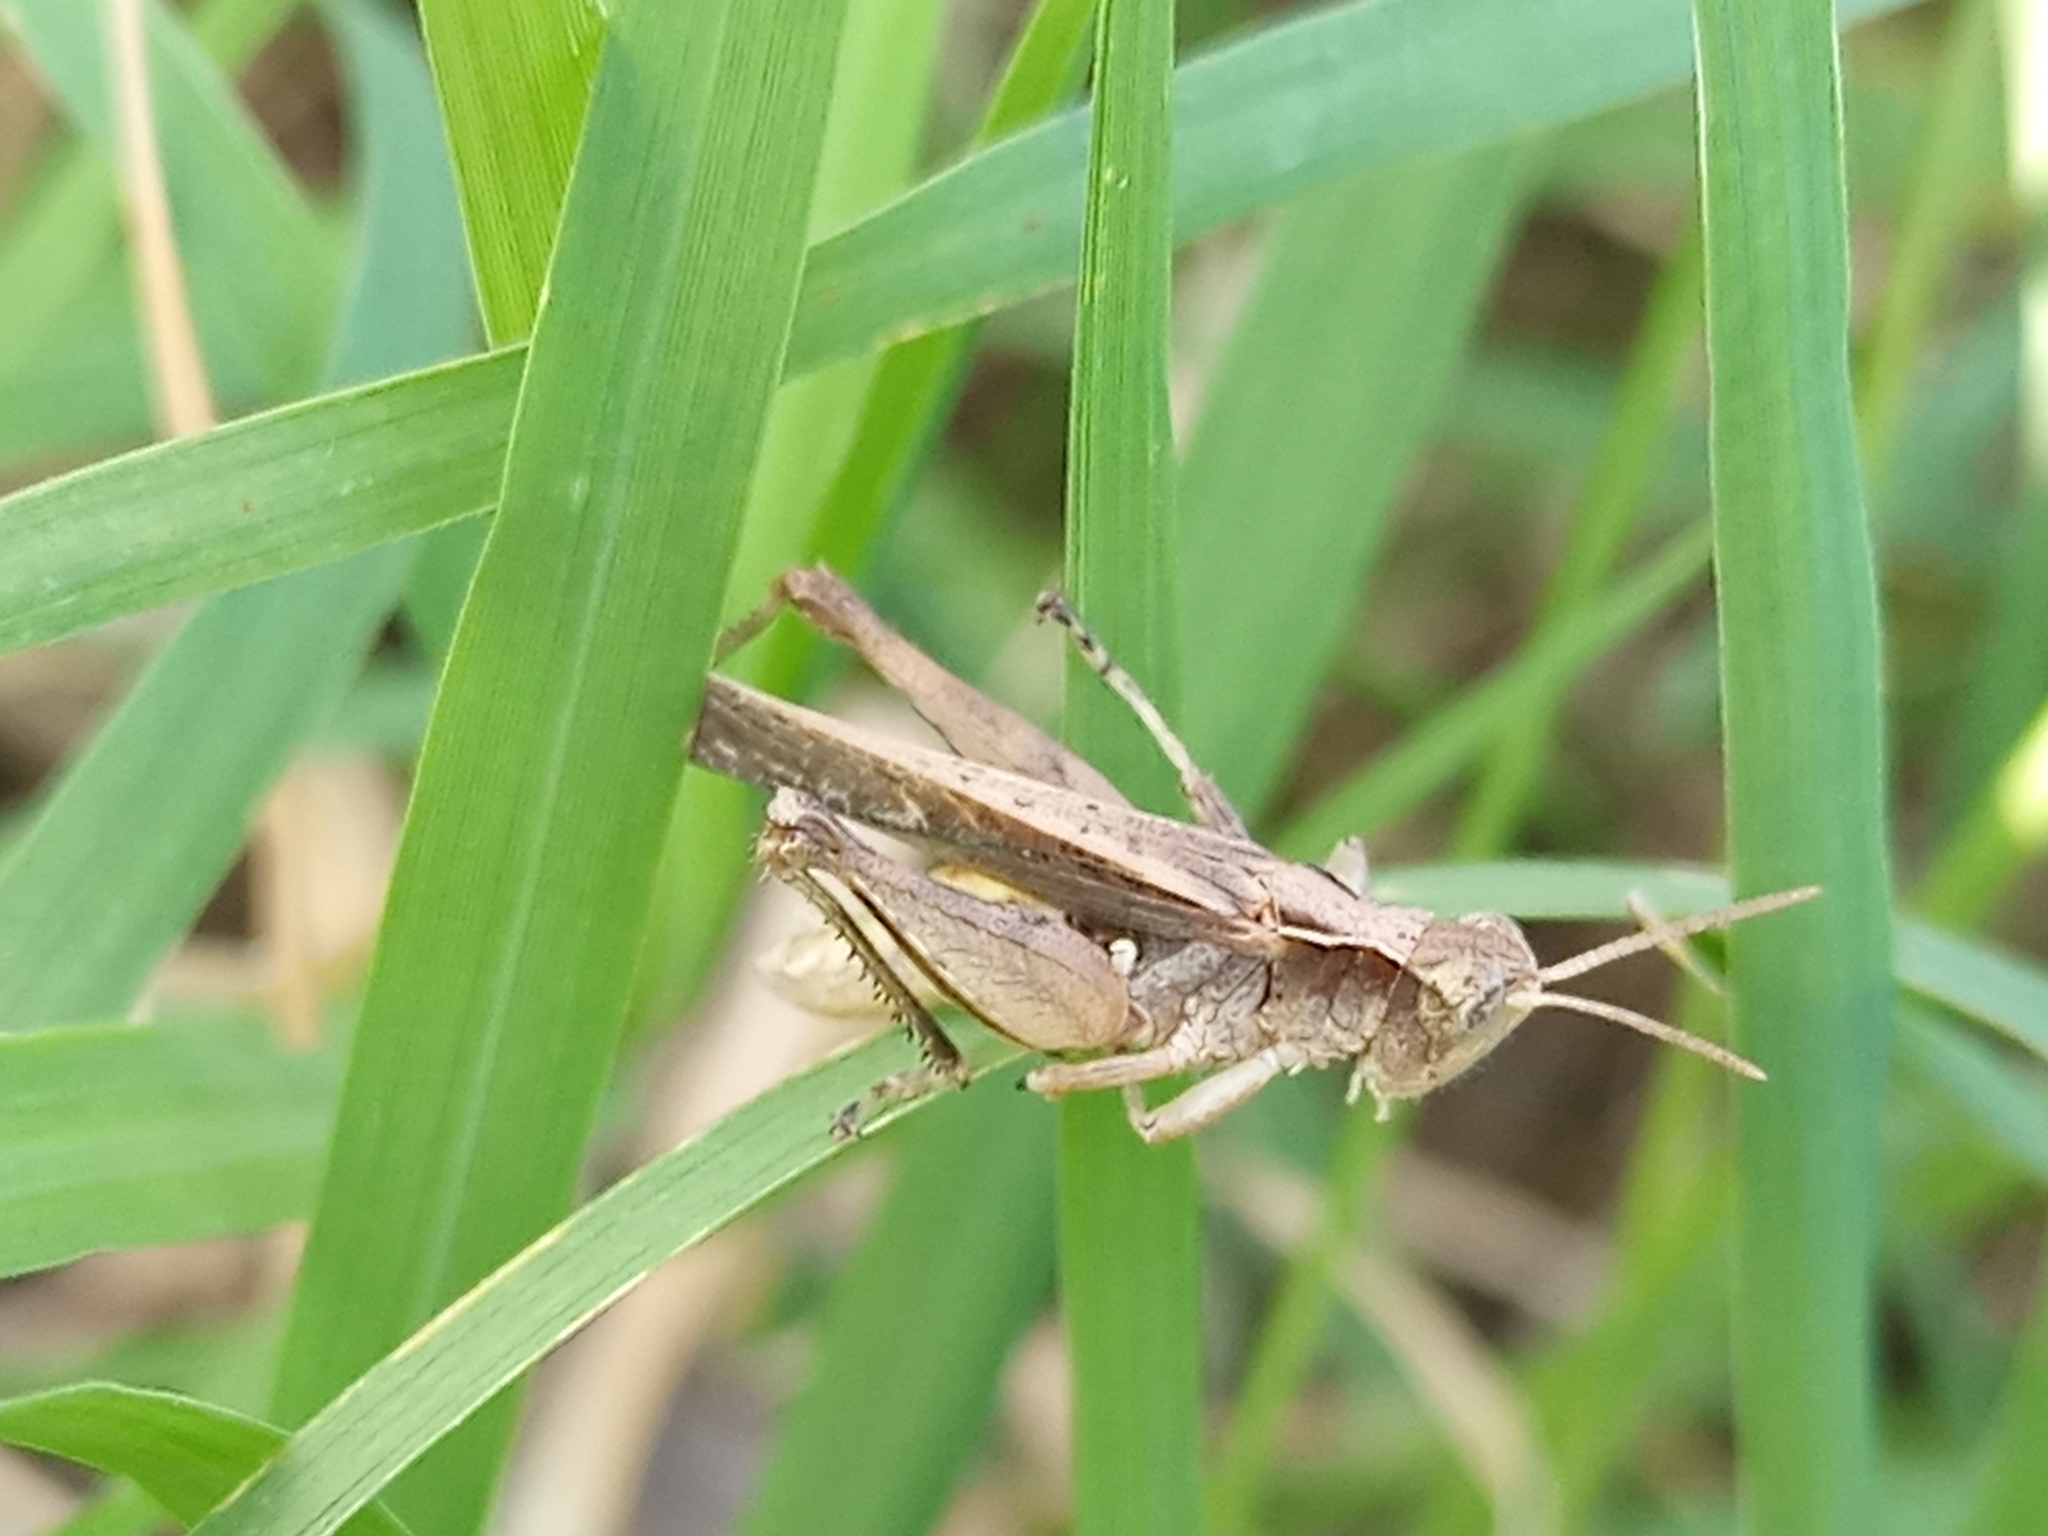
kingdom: Animalia
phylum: Arthropoda
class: Insecta
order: Orthoptera
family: Acrididae
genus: Orphulella
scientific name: Orphulella punctata
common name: Slant-faced grasshopper
